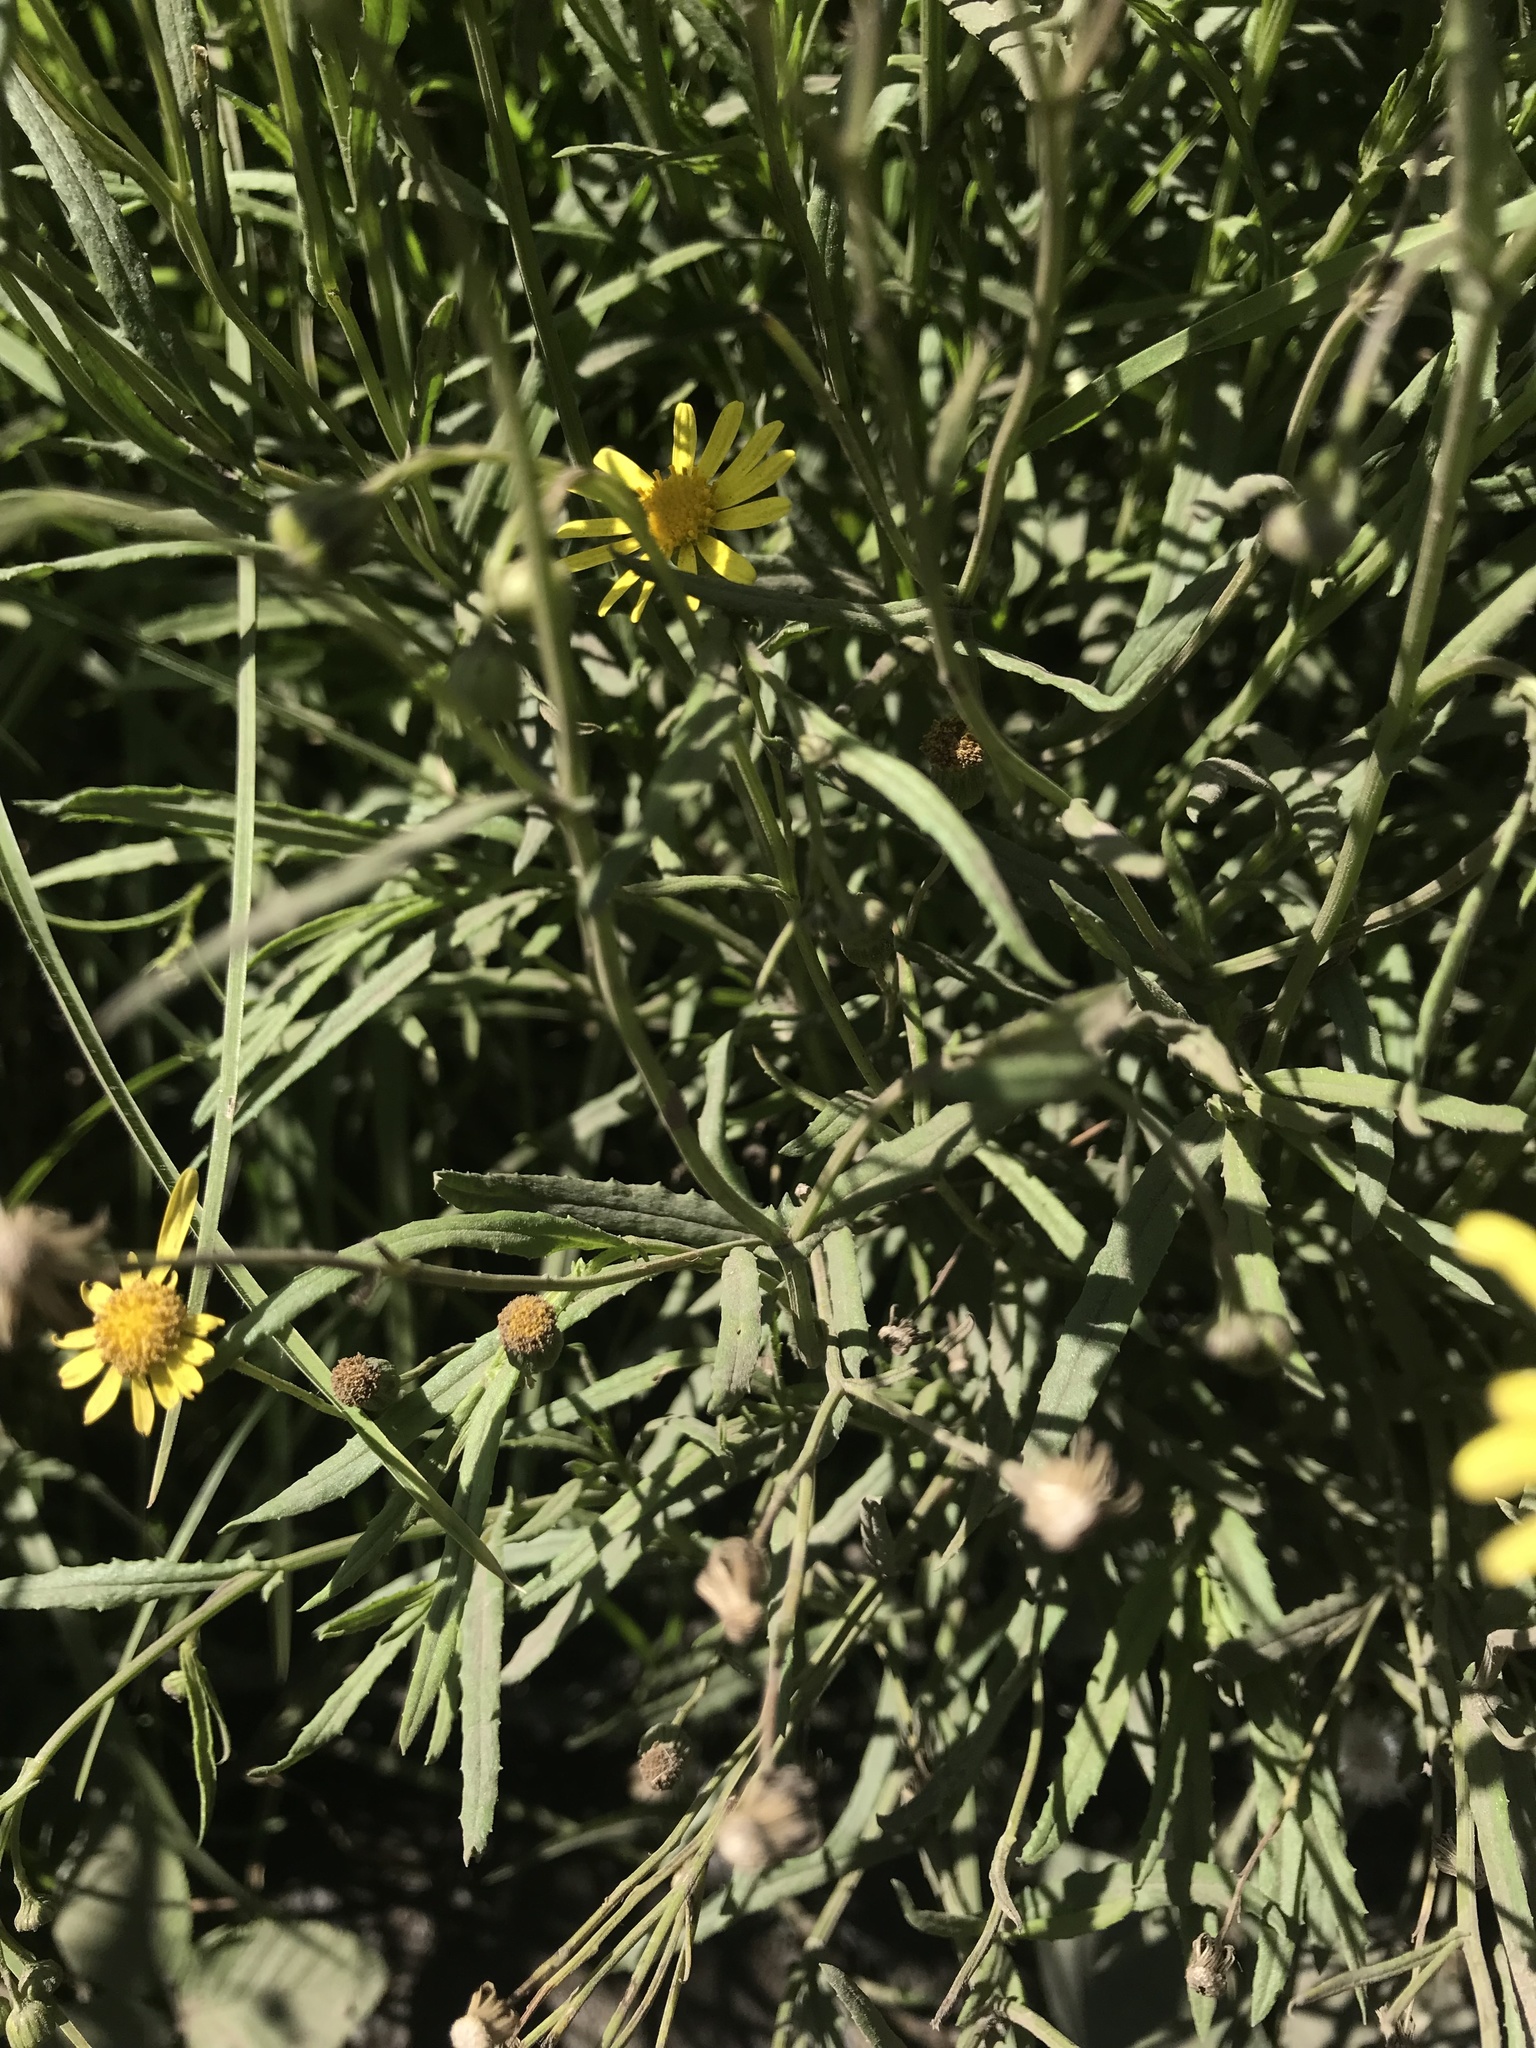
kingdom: Plantae
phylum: Tracheophyta
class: Magnoliopsida
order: Asterales
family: Asteraceae
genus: Senecio
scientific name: Senecio madagascariensis
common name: Madagascar ragwort
